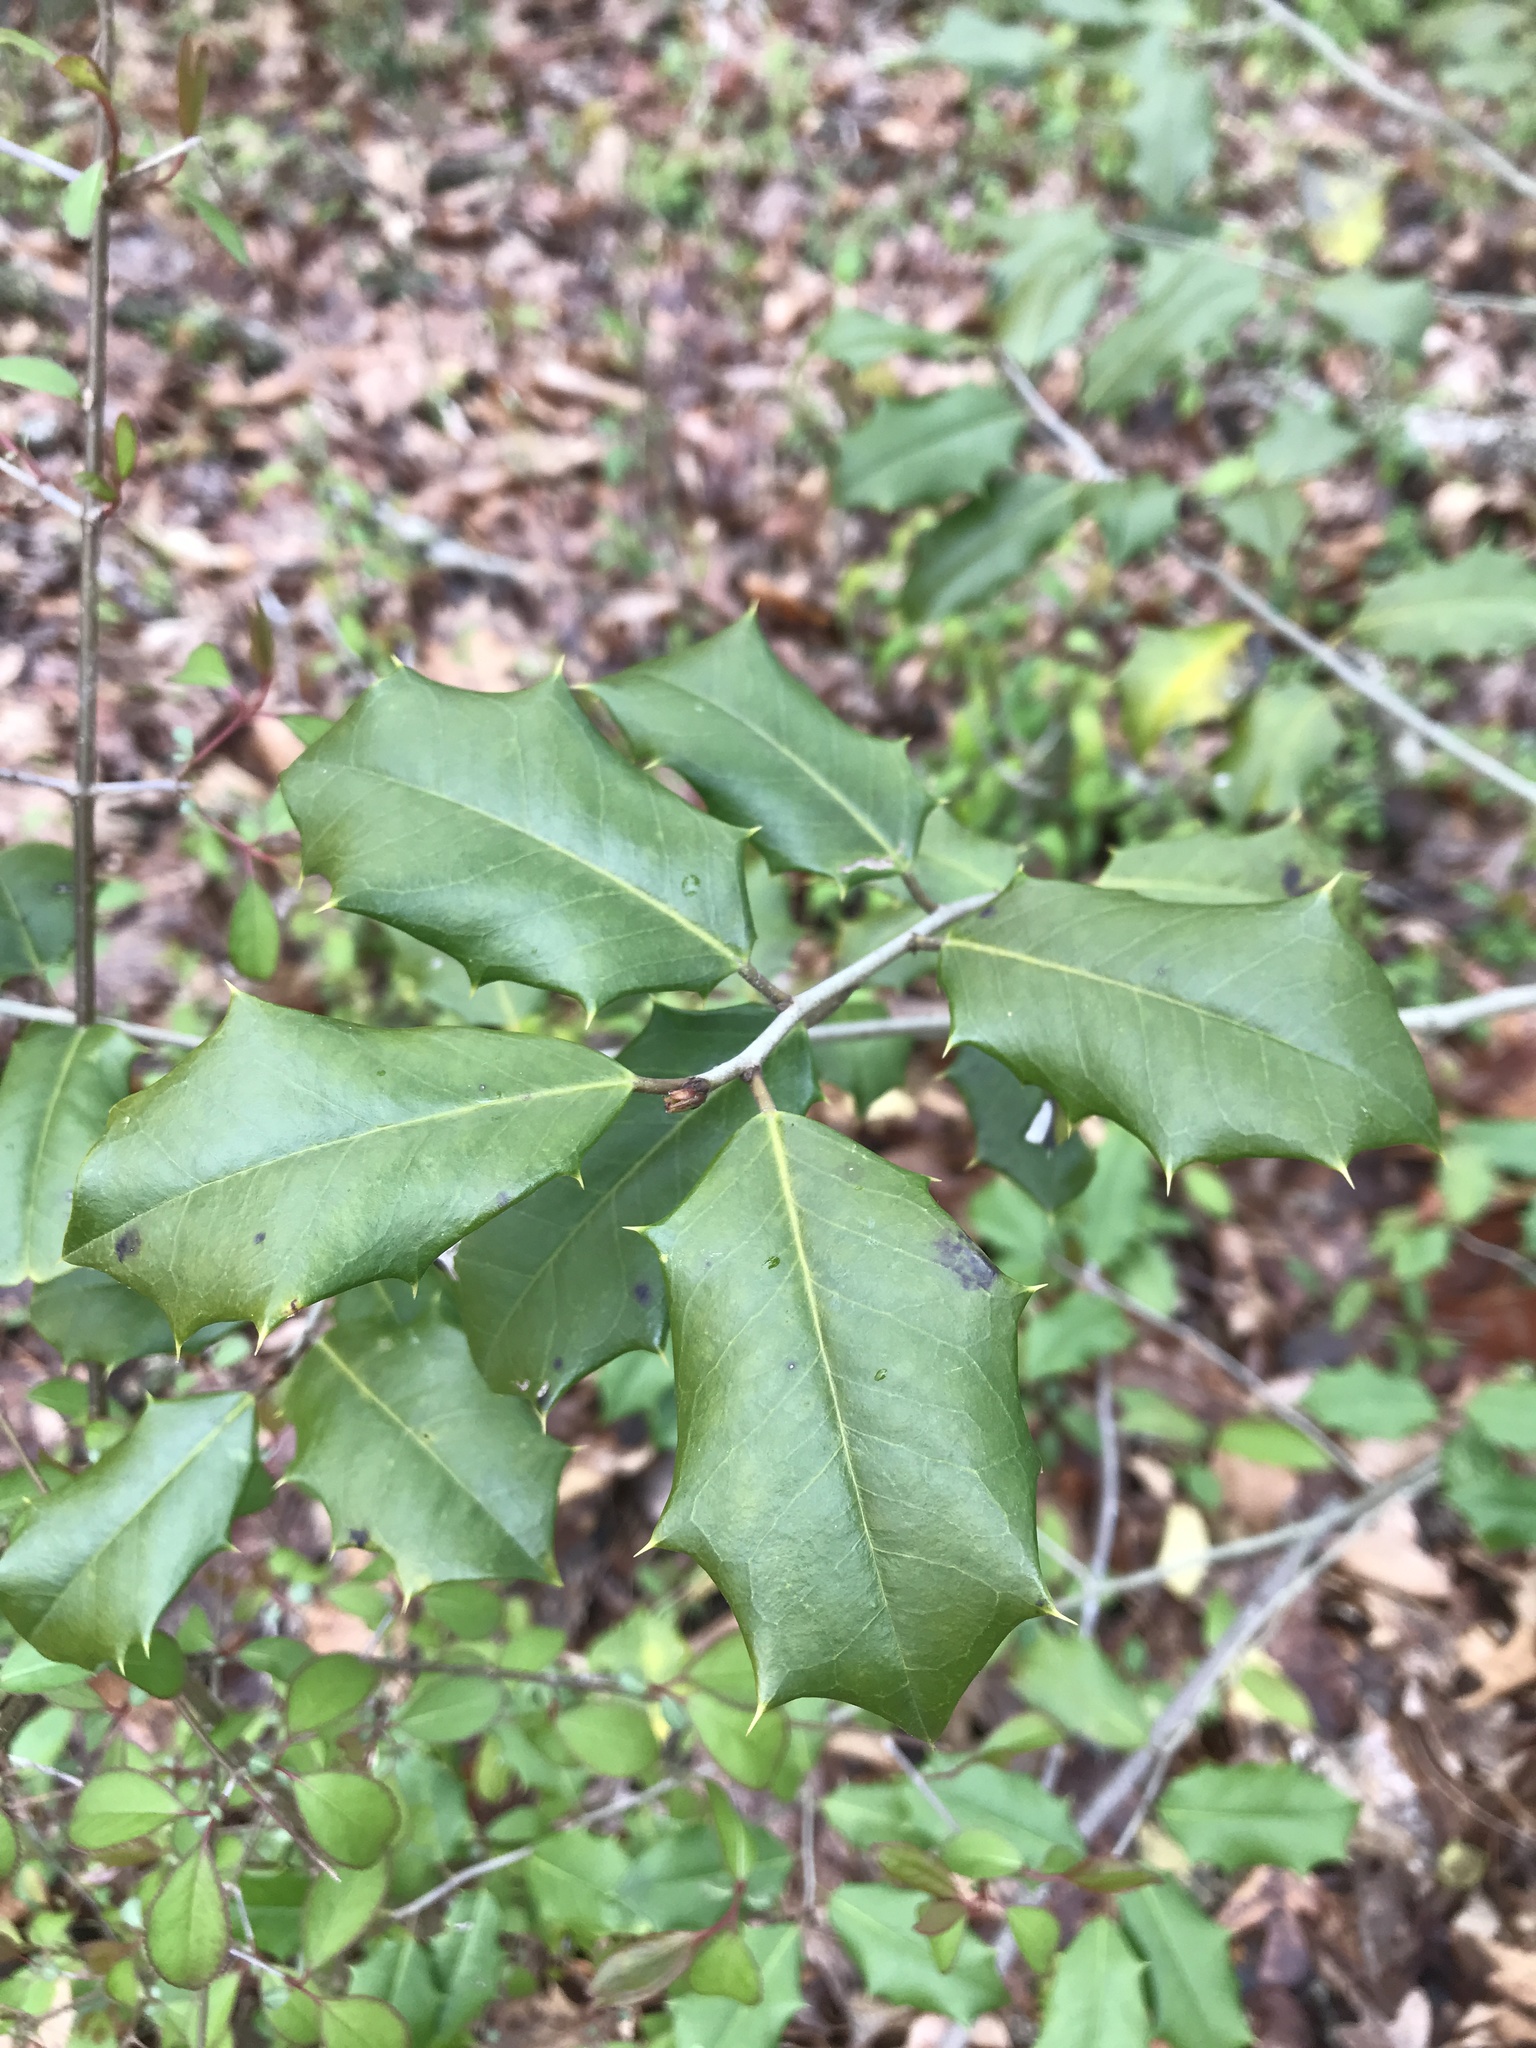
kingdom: Plantae
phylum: Tracheophyta
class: Magnoliopsida
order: Aquifoliales
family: Aquifoliaceae
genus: Ilex
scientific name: Ilex opaca
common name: American holly
